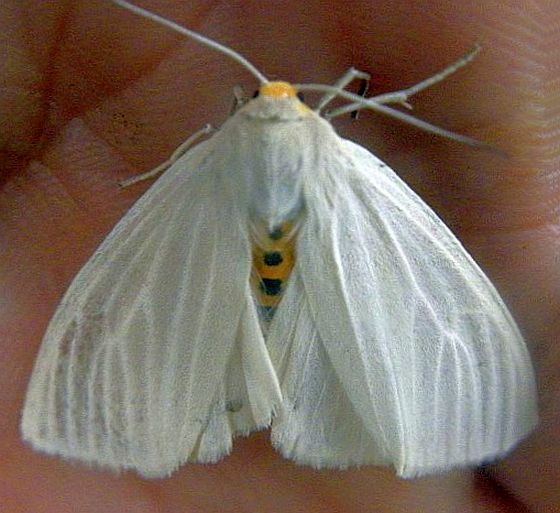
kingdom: Animalia
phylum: Arthropoda
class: Insecta
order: Lepidoptera
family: Erebidae
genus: Cycnia
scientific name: Cycnia oregonensis
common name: Oregon cycnia moth
